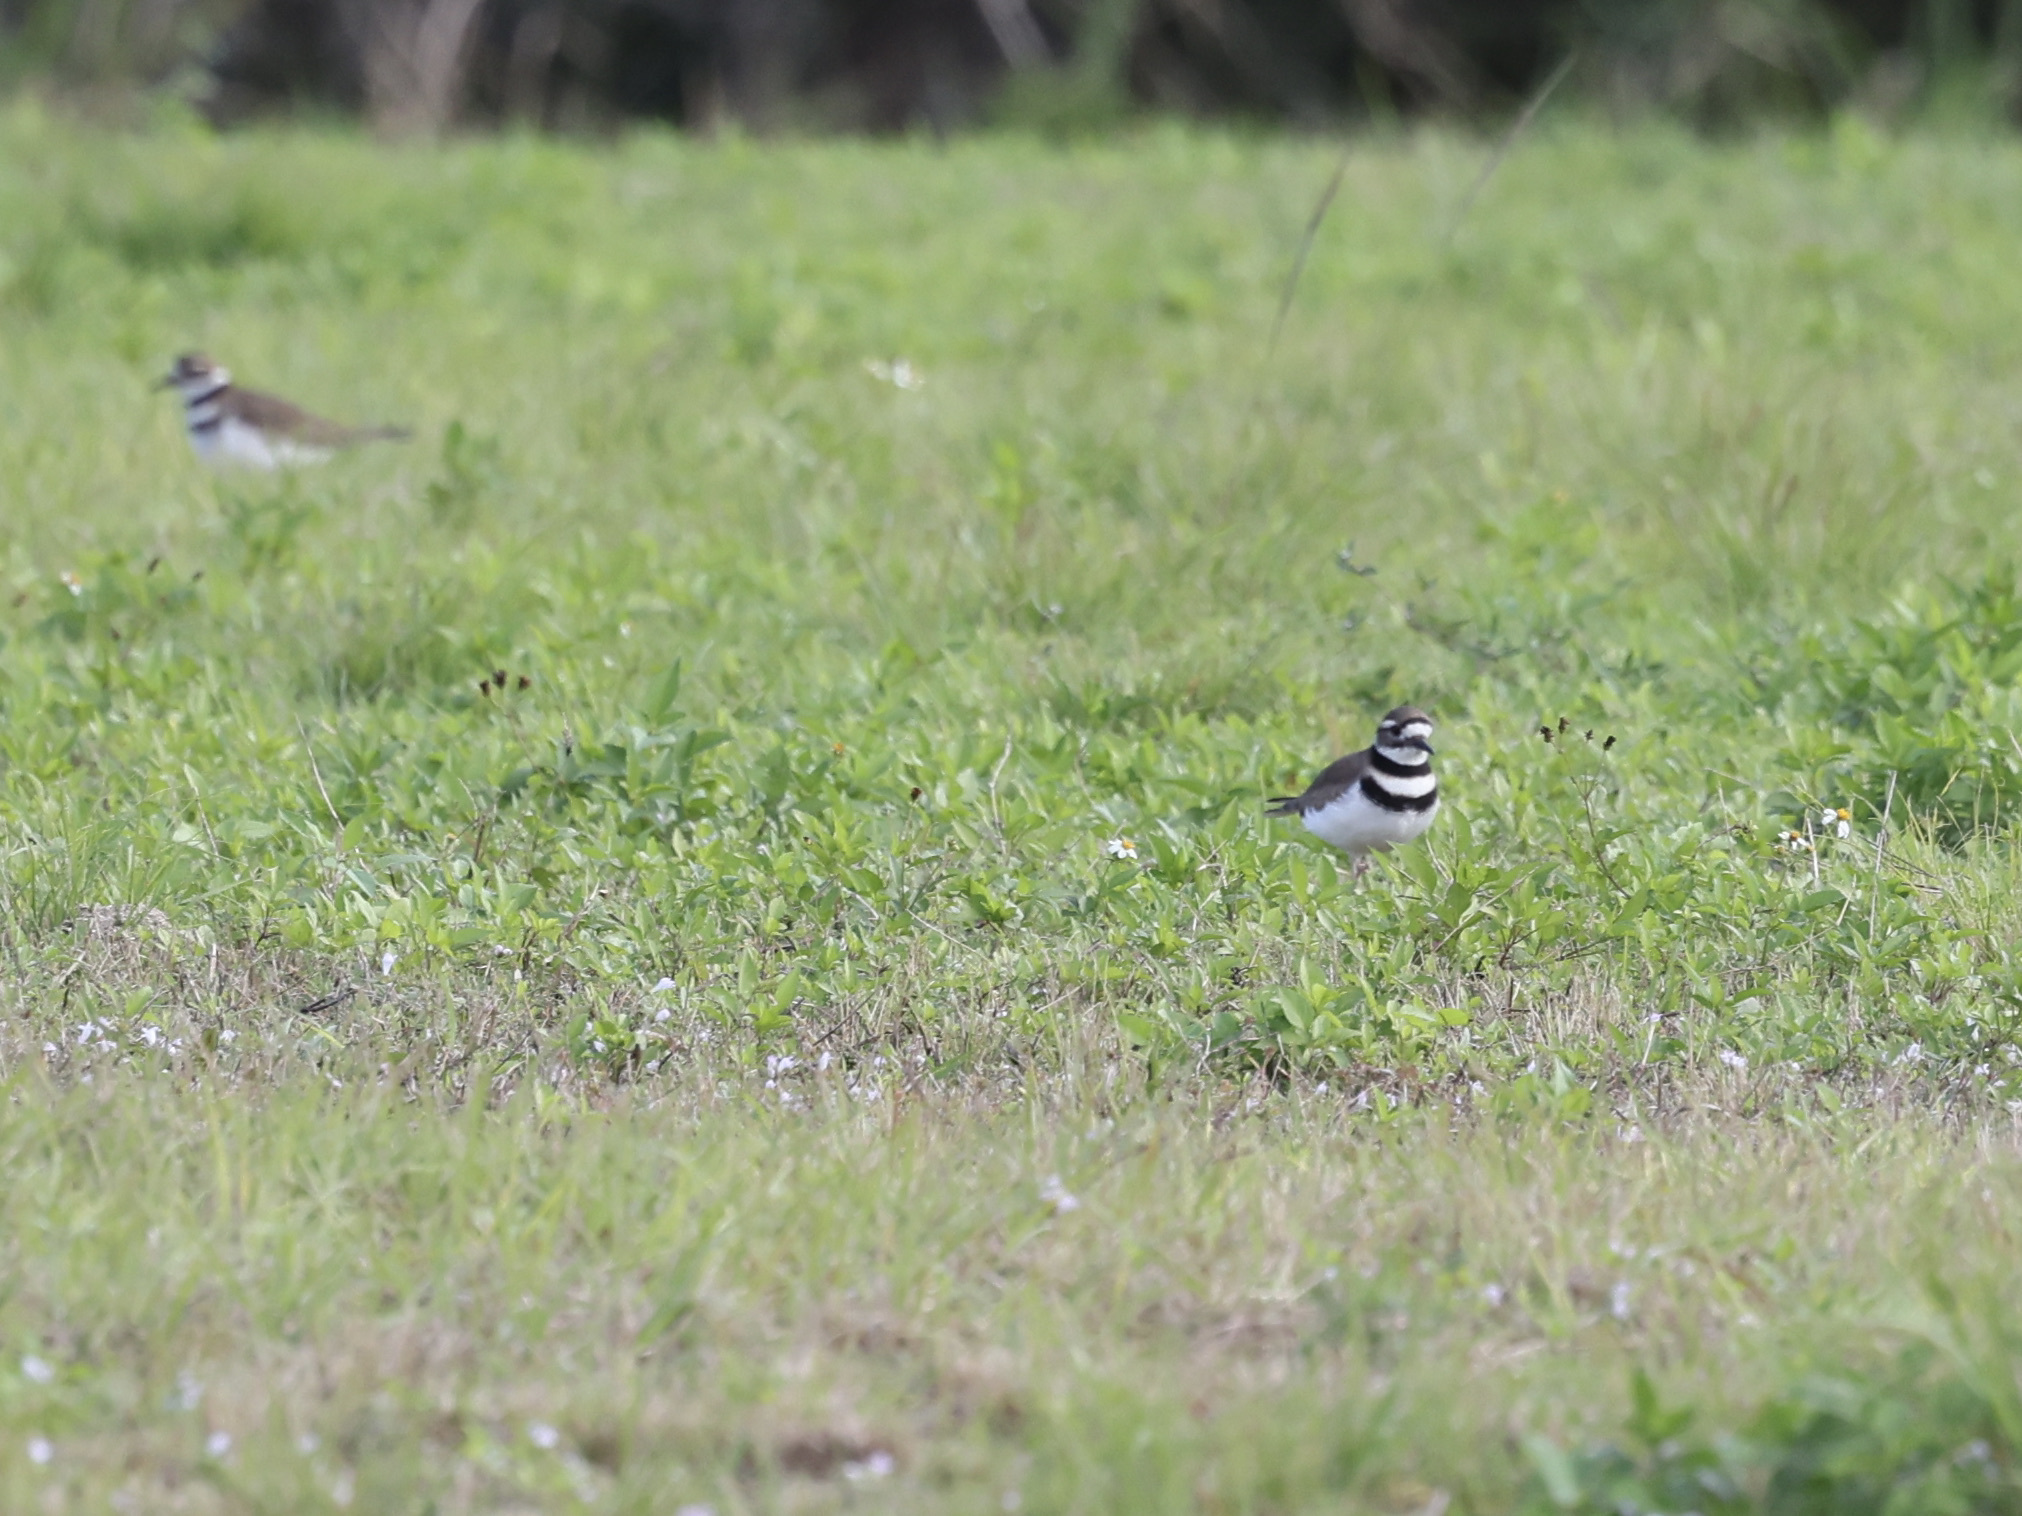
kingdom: Animalia
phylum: Chordata
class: Aves
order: Charadriiformes
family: Charadriidae
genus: Charadrius
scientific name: Charadrius vociferus
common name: Killdeer
